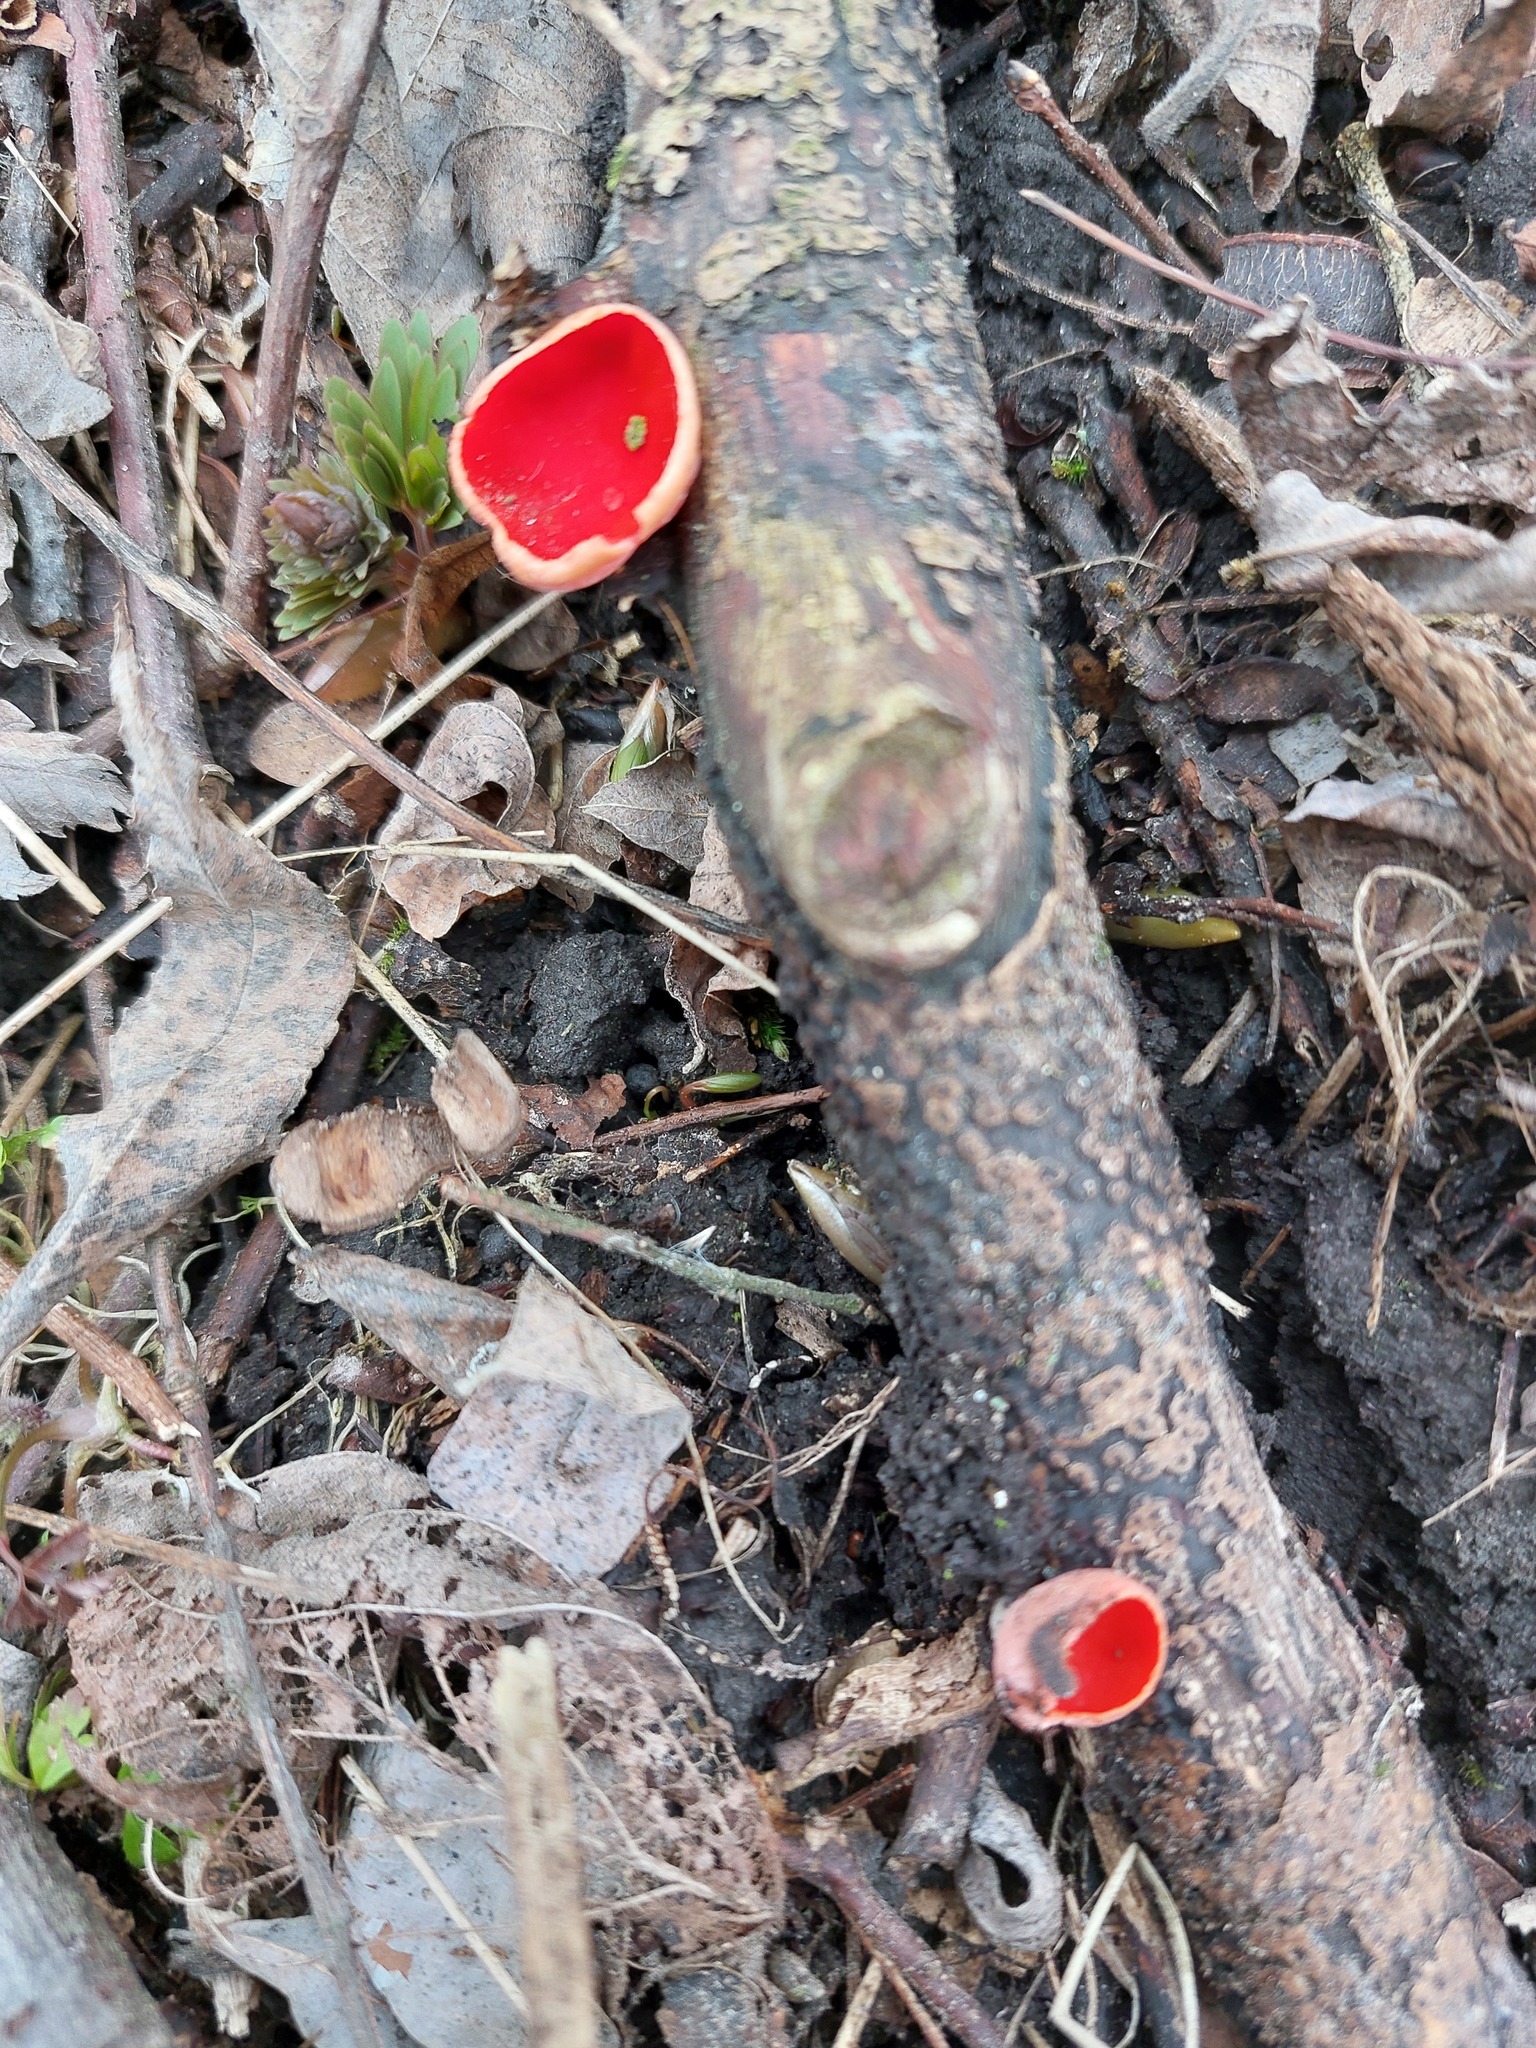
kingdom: Fungi
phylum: Ascomycota
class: Pezizomycetes
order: Pezizales
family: Sarcoscyphaceae
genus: Sarcoscypha
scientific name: Sarcoscypha austriaca
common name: Scarlet elfcup
